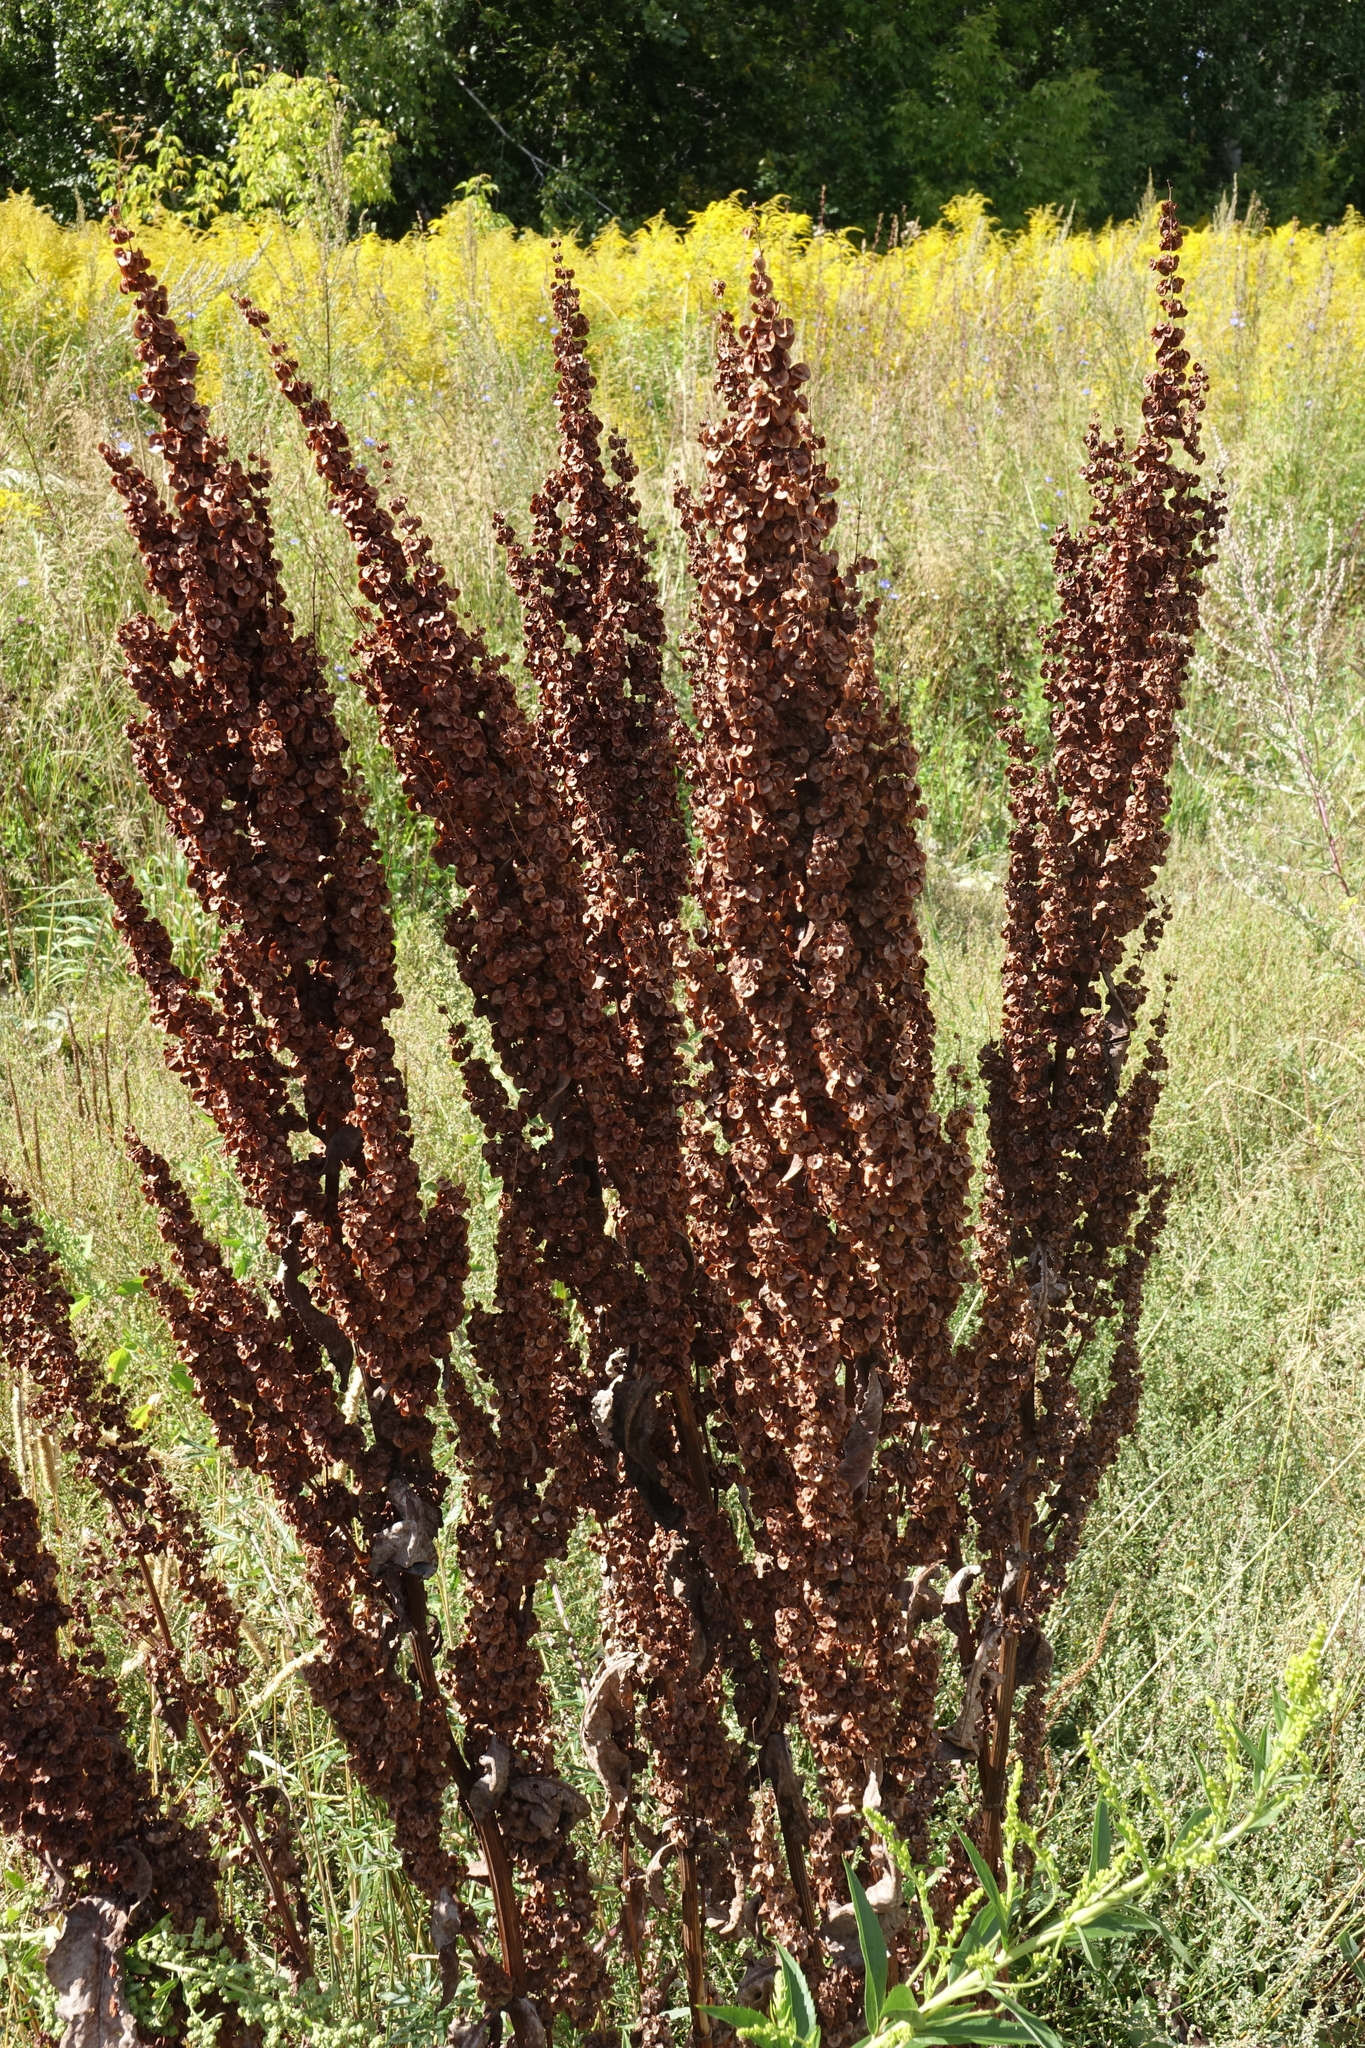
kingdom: Plantae
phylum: Tracheophyta
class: Magnoliopsida
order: Caryophyllales
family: Polygonaceae
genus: Rumex
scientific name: Rumex confertus
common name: Russian dock
